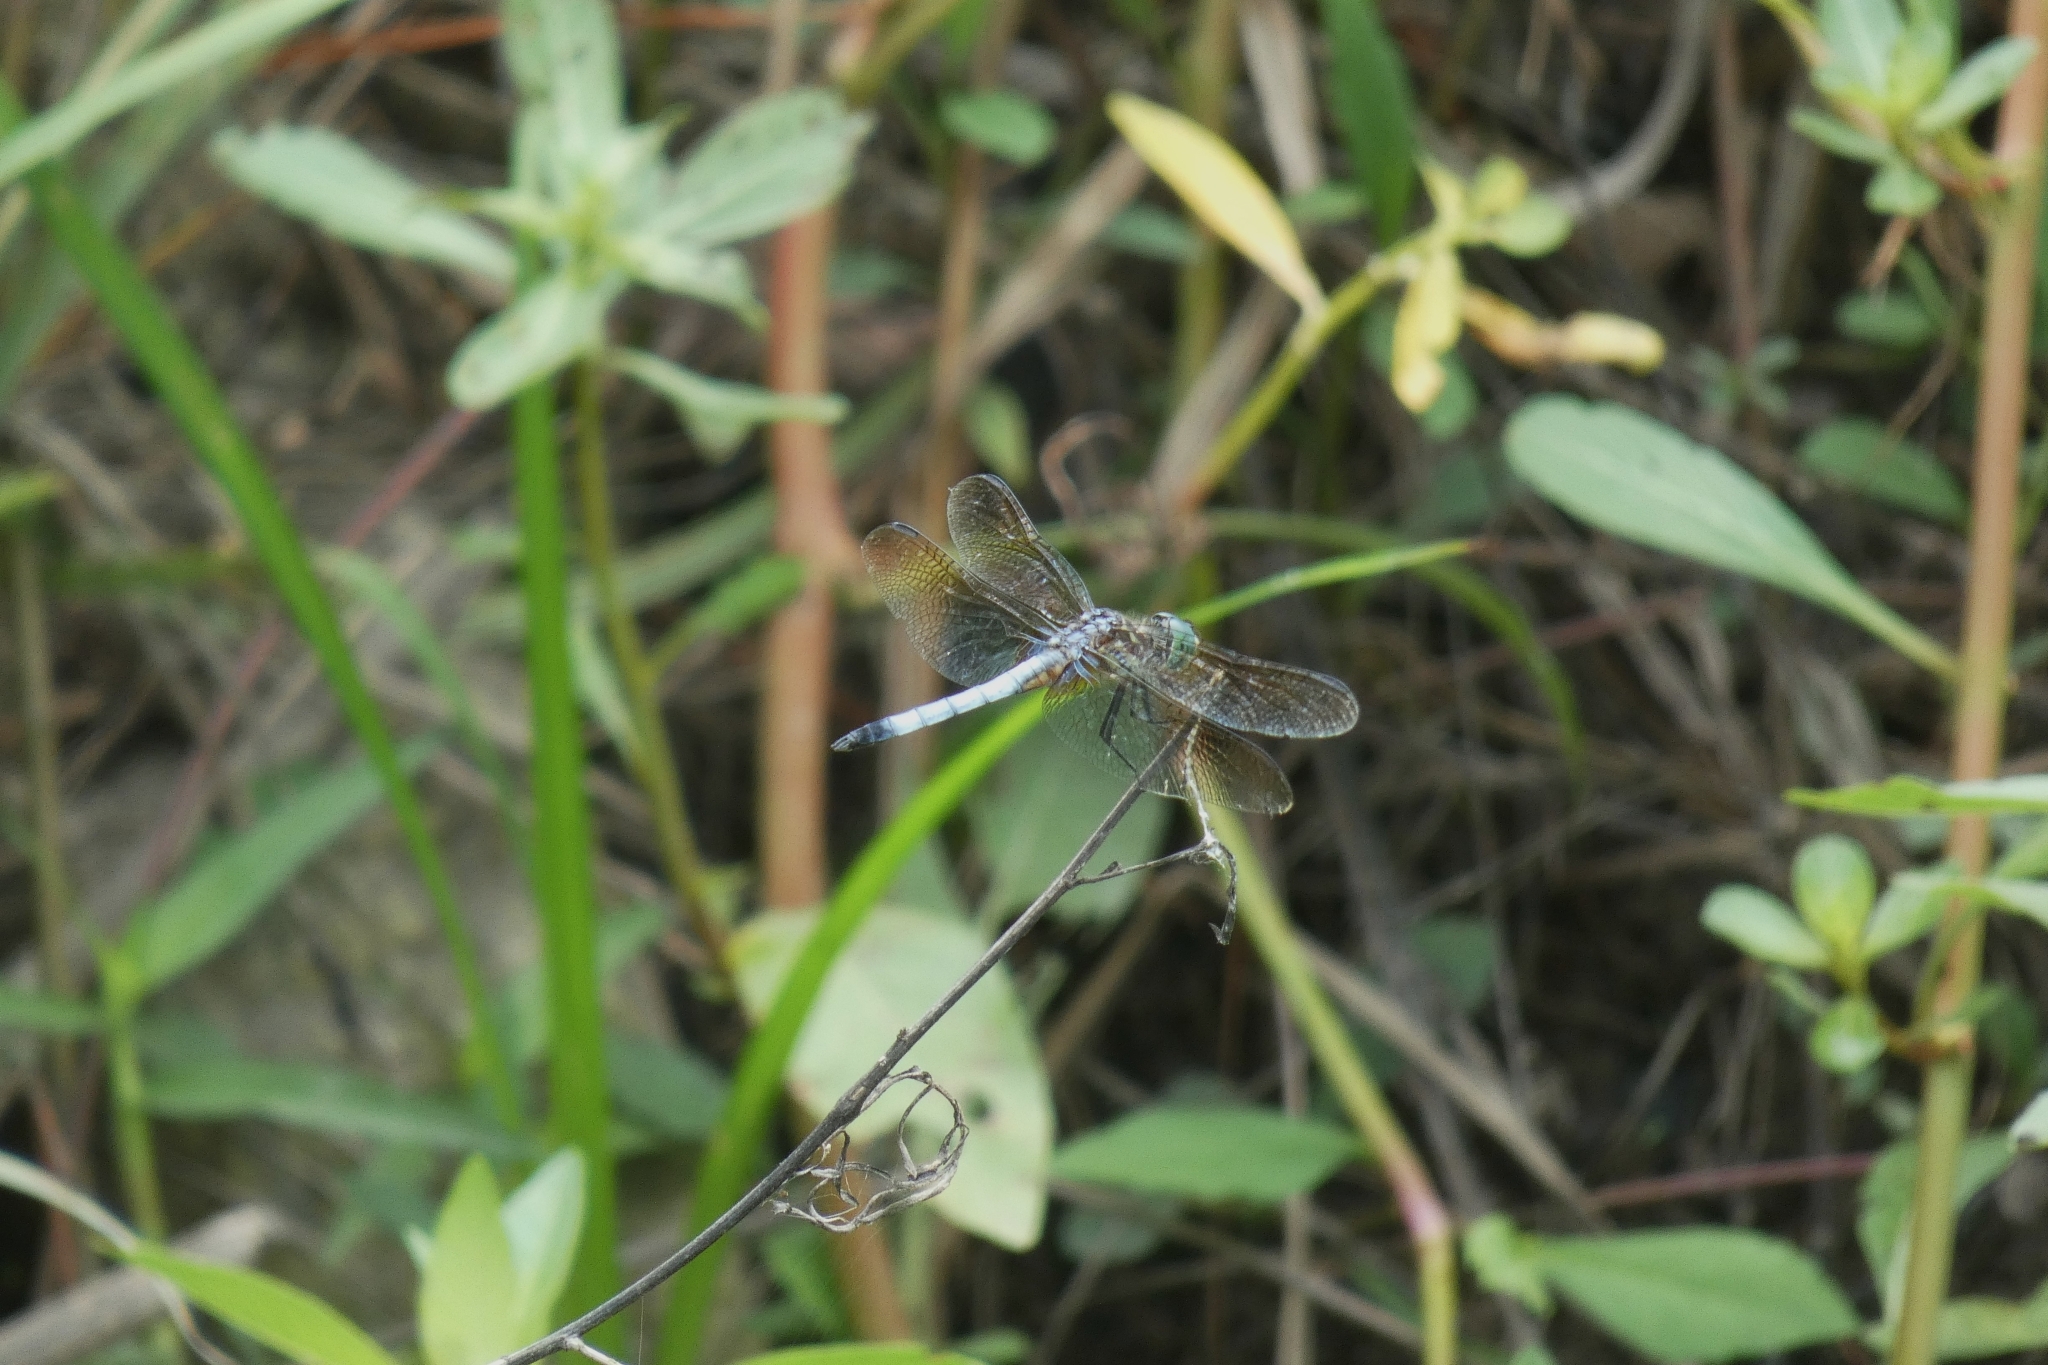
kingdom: Animalia
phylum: Arthropoda
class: Insecta
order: Odonata
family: Libellulidae
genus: Pachydiplax
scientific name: Pachydiplax longipennis
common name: Blue dasher
